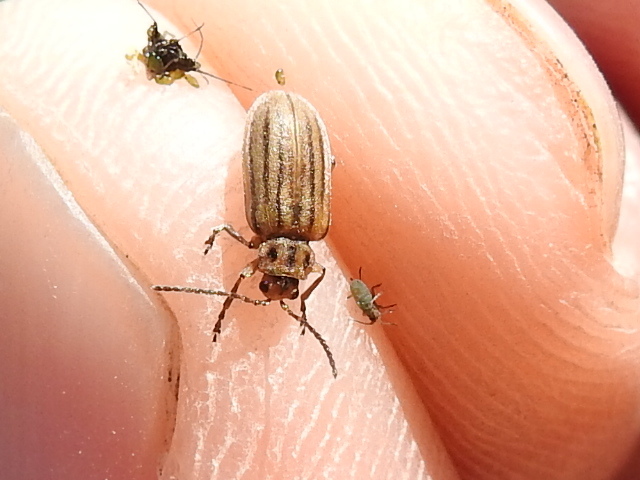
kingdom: Animalia
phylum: Arthropoda
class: Insecta
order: Coleoptera
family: Chrysomelidae
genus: Ophraella
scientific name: Ophraella communa
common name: Ragweed leaf beetle
